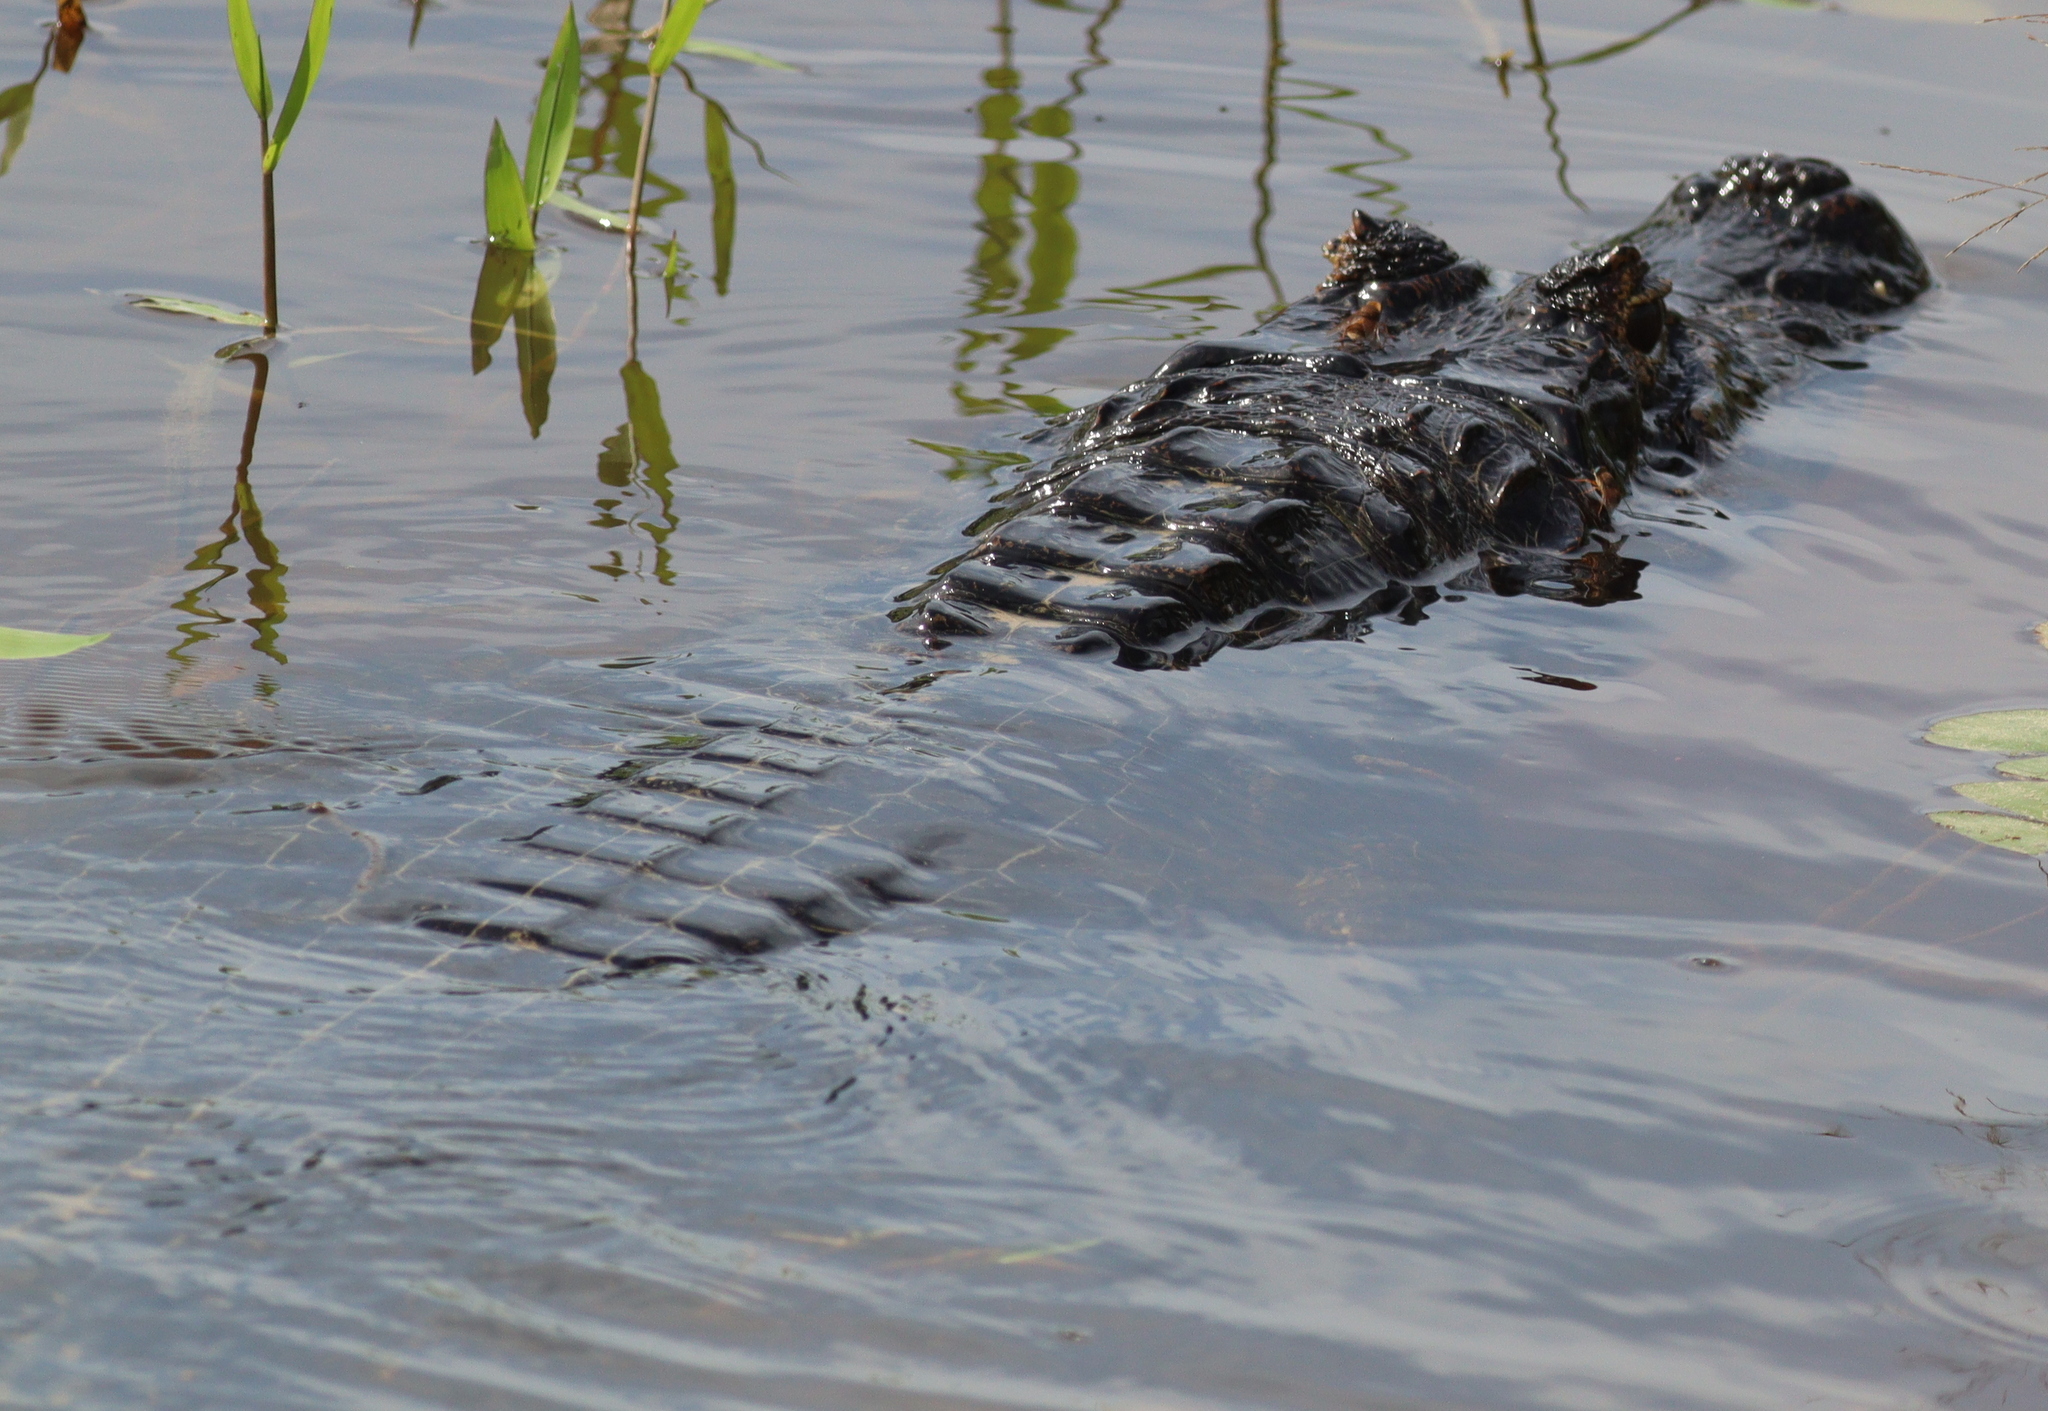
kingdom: Animalia
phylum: Chordata
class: Crocodylia
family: Alligatoridae
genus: Caiman
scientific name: Caiman yacare
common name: Yacare caiman
